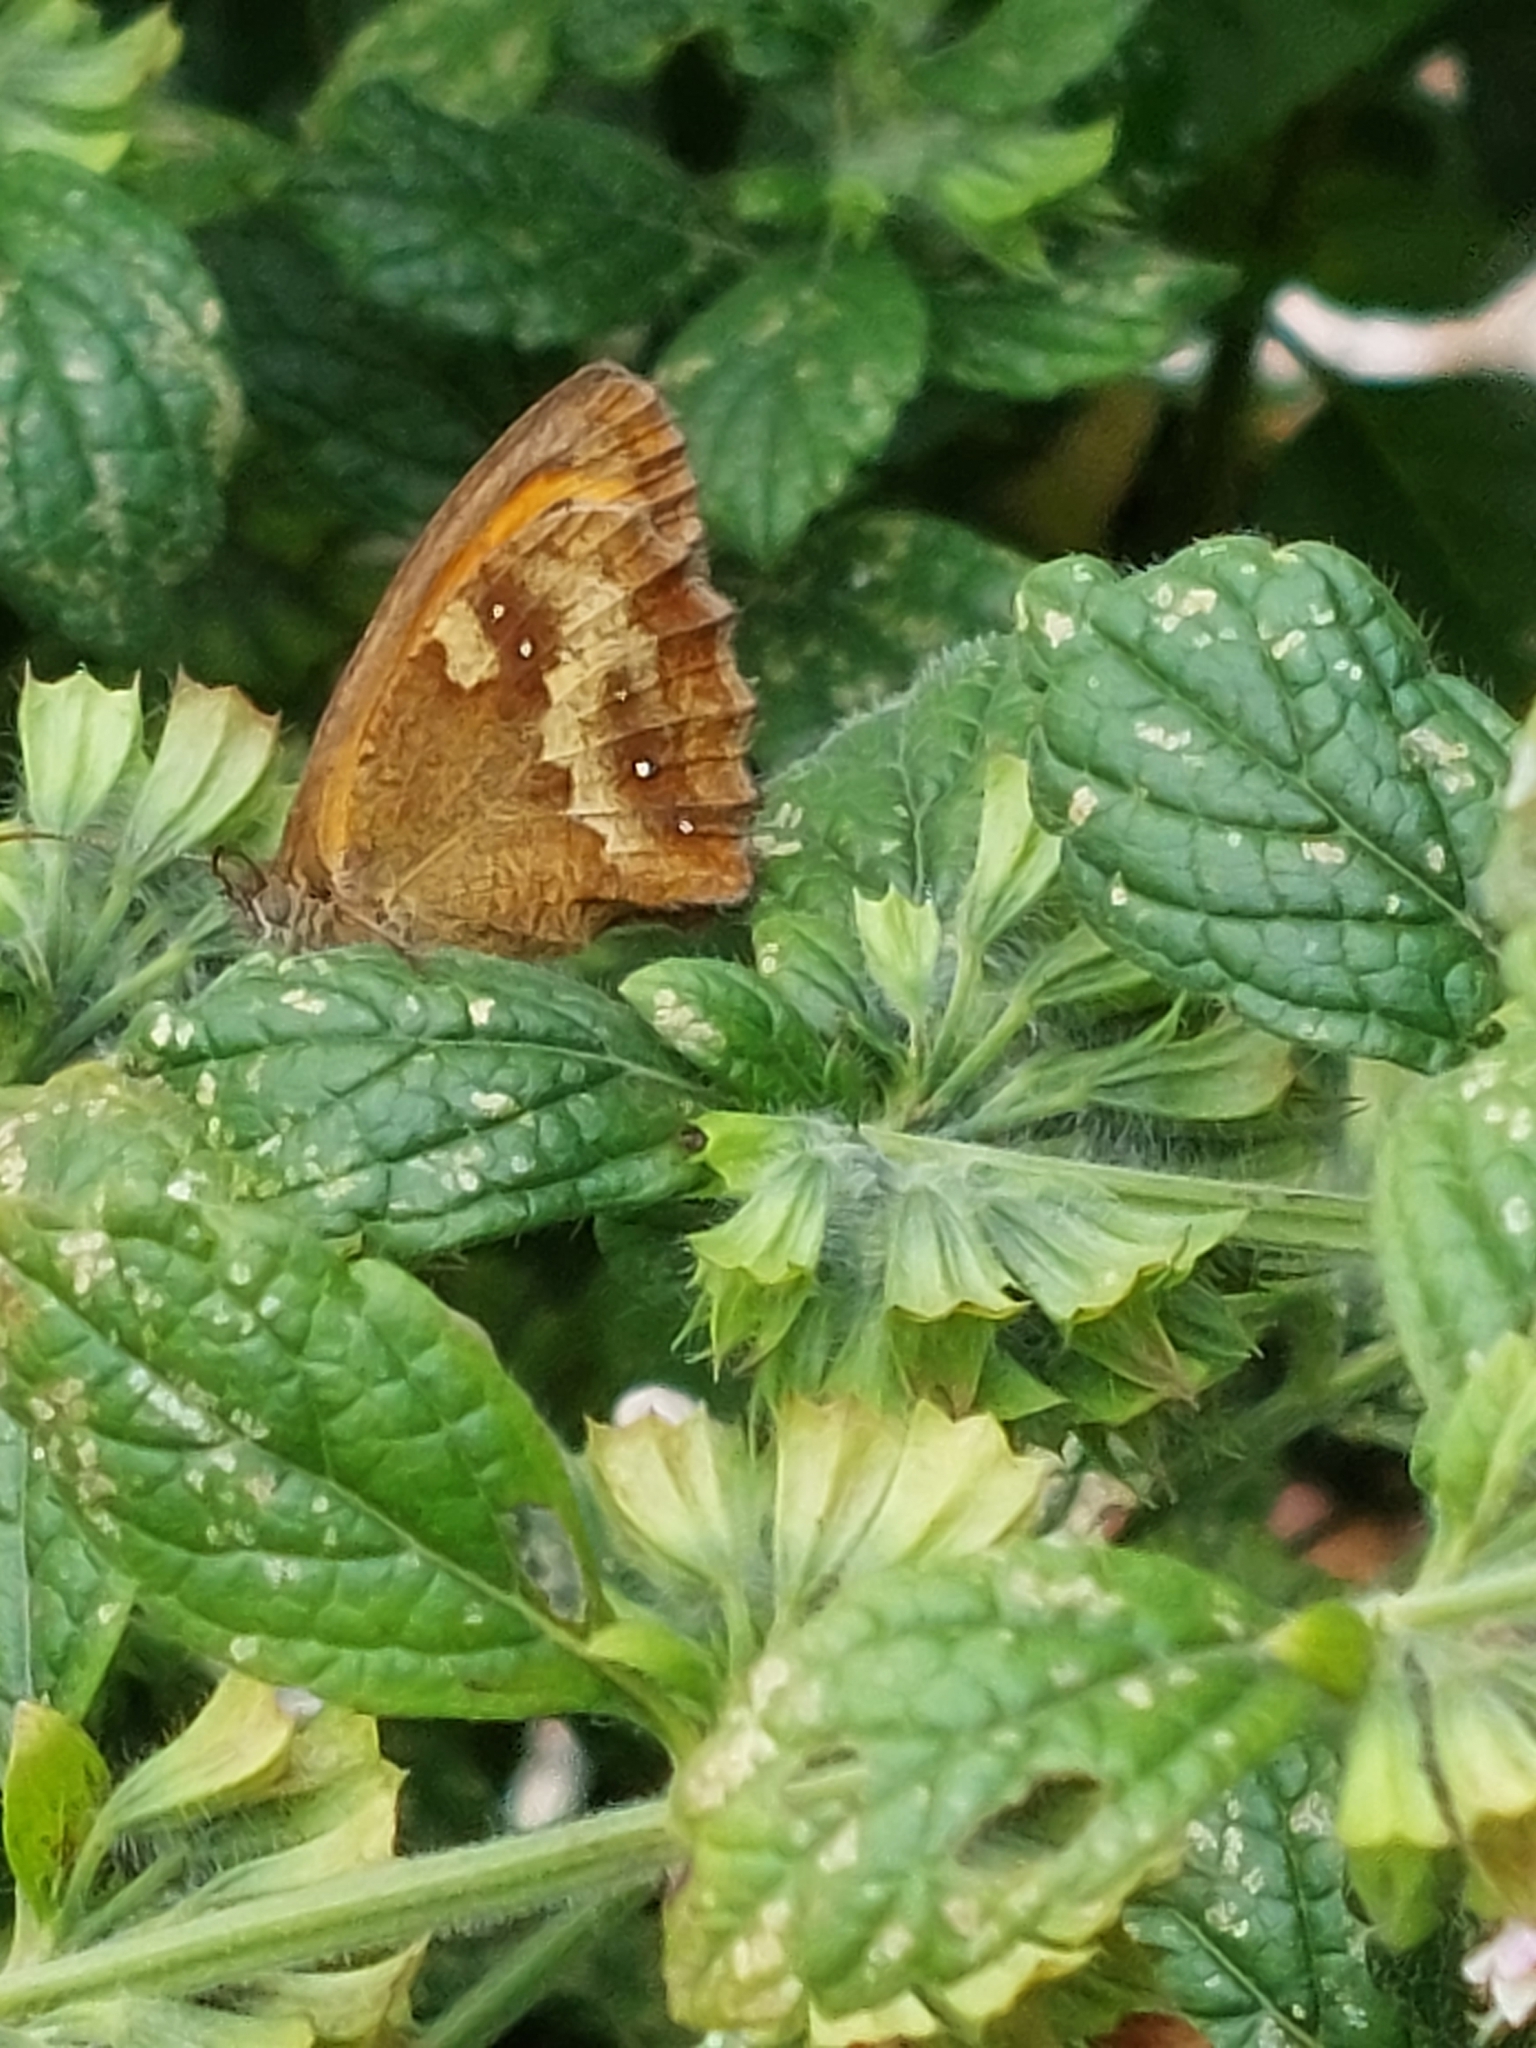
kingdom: Animalia
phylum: Arthropoda
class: Insecta
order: Lepidoptera
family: Nymphalidae
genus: Pyronia
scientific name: Pyronia tithonus
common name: Gatekeeper
